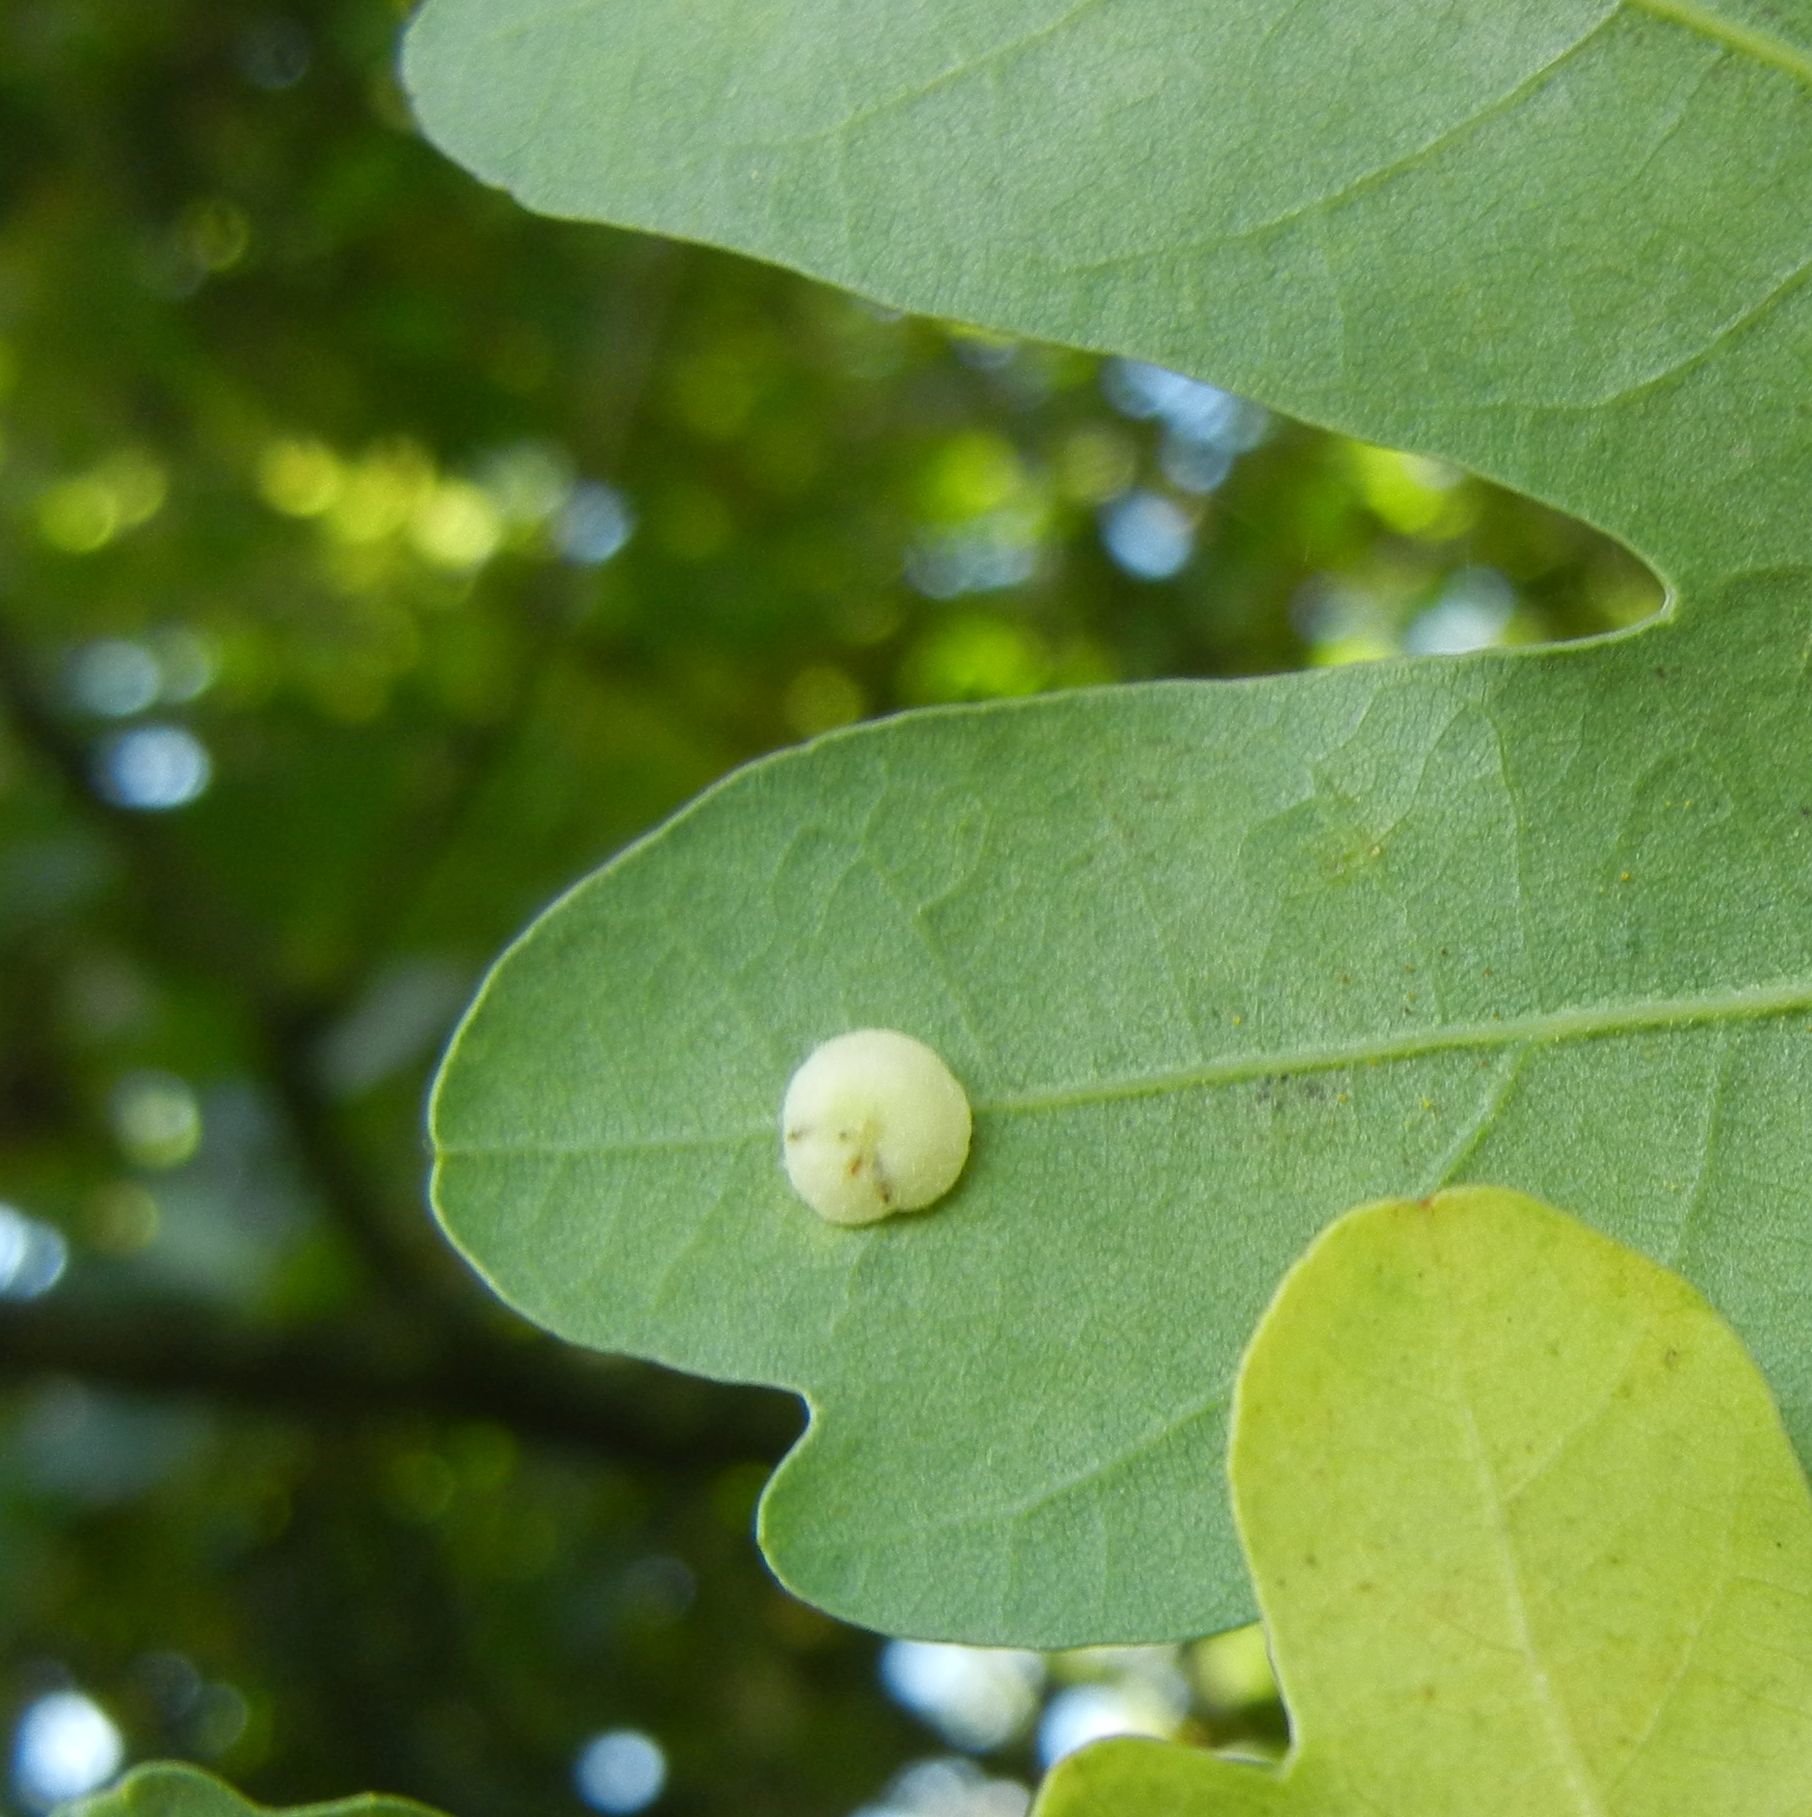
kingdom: Animalia
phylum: Arthropoda
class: Insecta
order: Hymenoptera
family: Cynipidae
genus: Neuroterus
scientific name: Neuroterus albipes
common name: Smooth spangle gall
